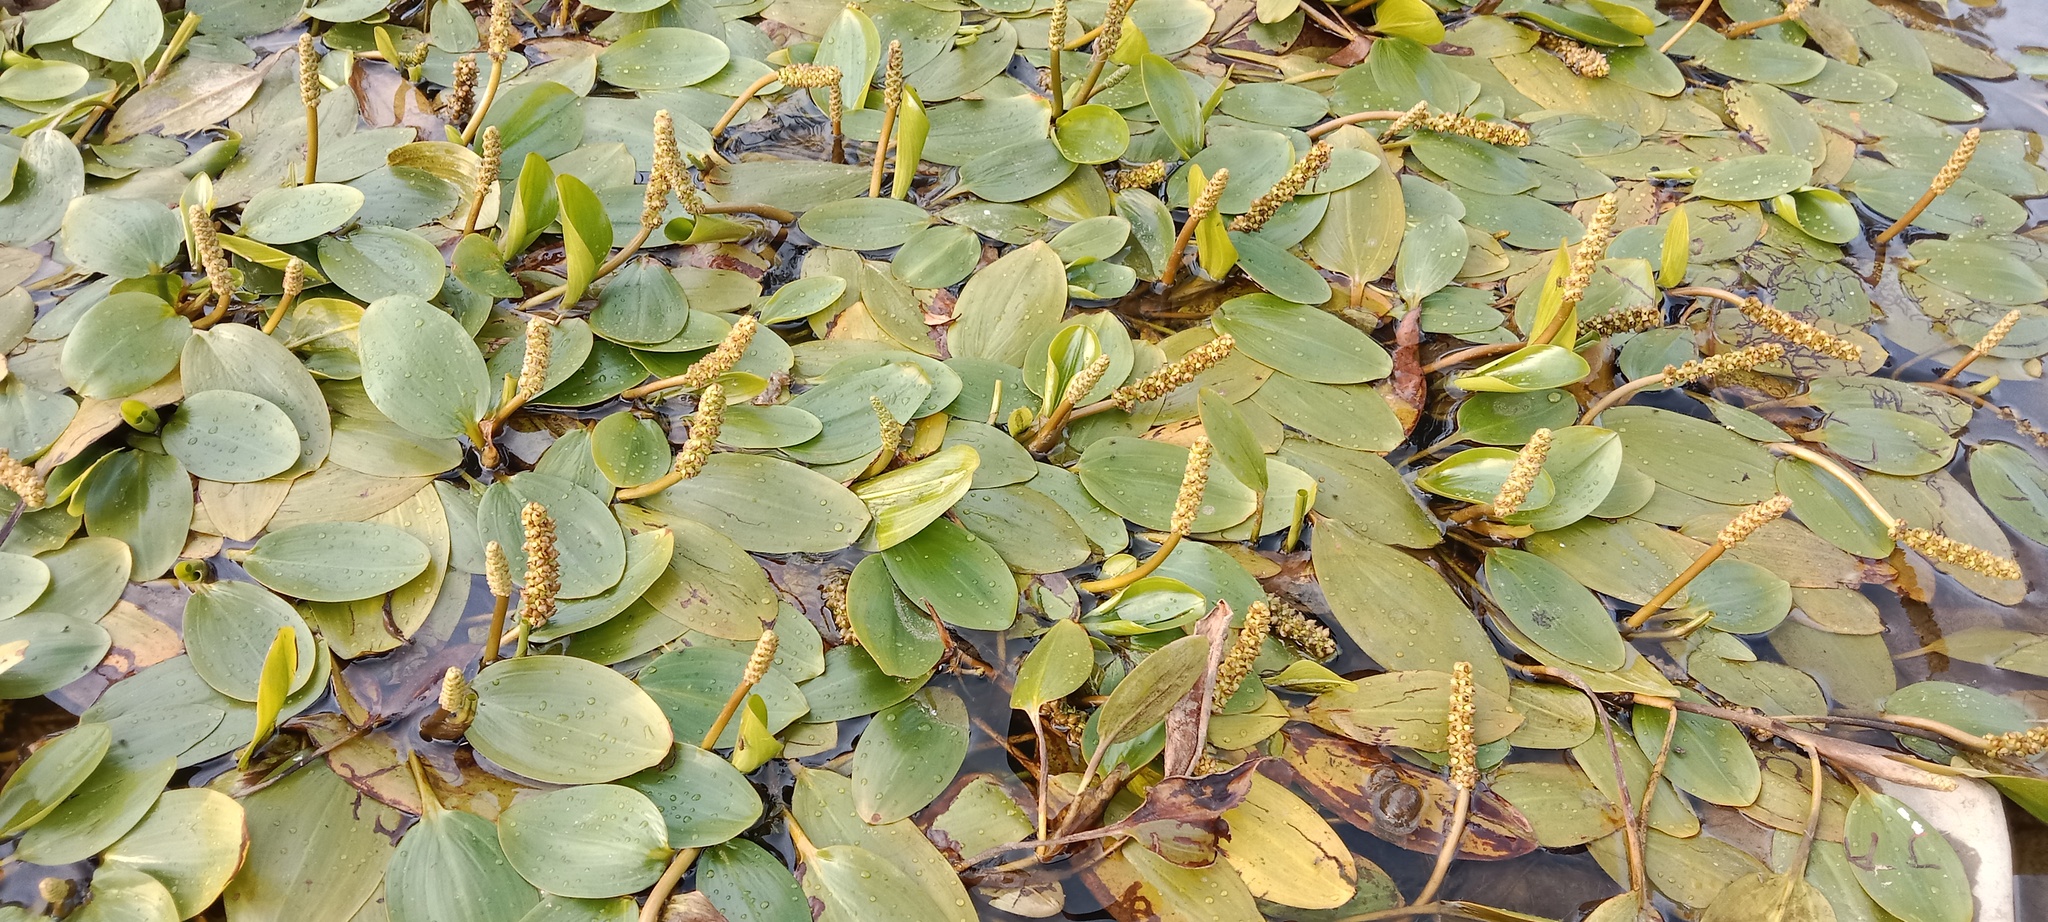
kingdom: Plantae
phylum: Tracheophyta
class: Liliopsida
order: Alismatales
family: Potamogetonaceae
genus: Potamogeton
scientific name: Potamogeton nodosus
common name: Loddon pondweed
